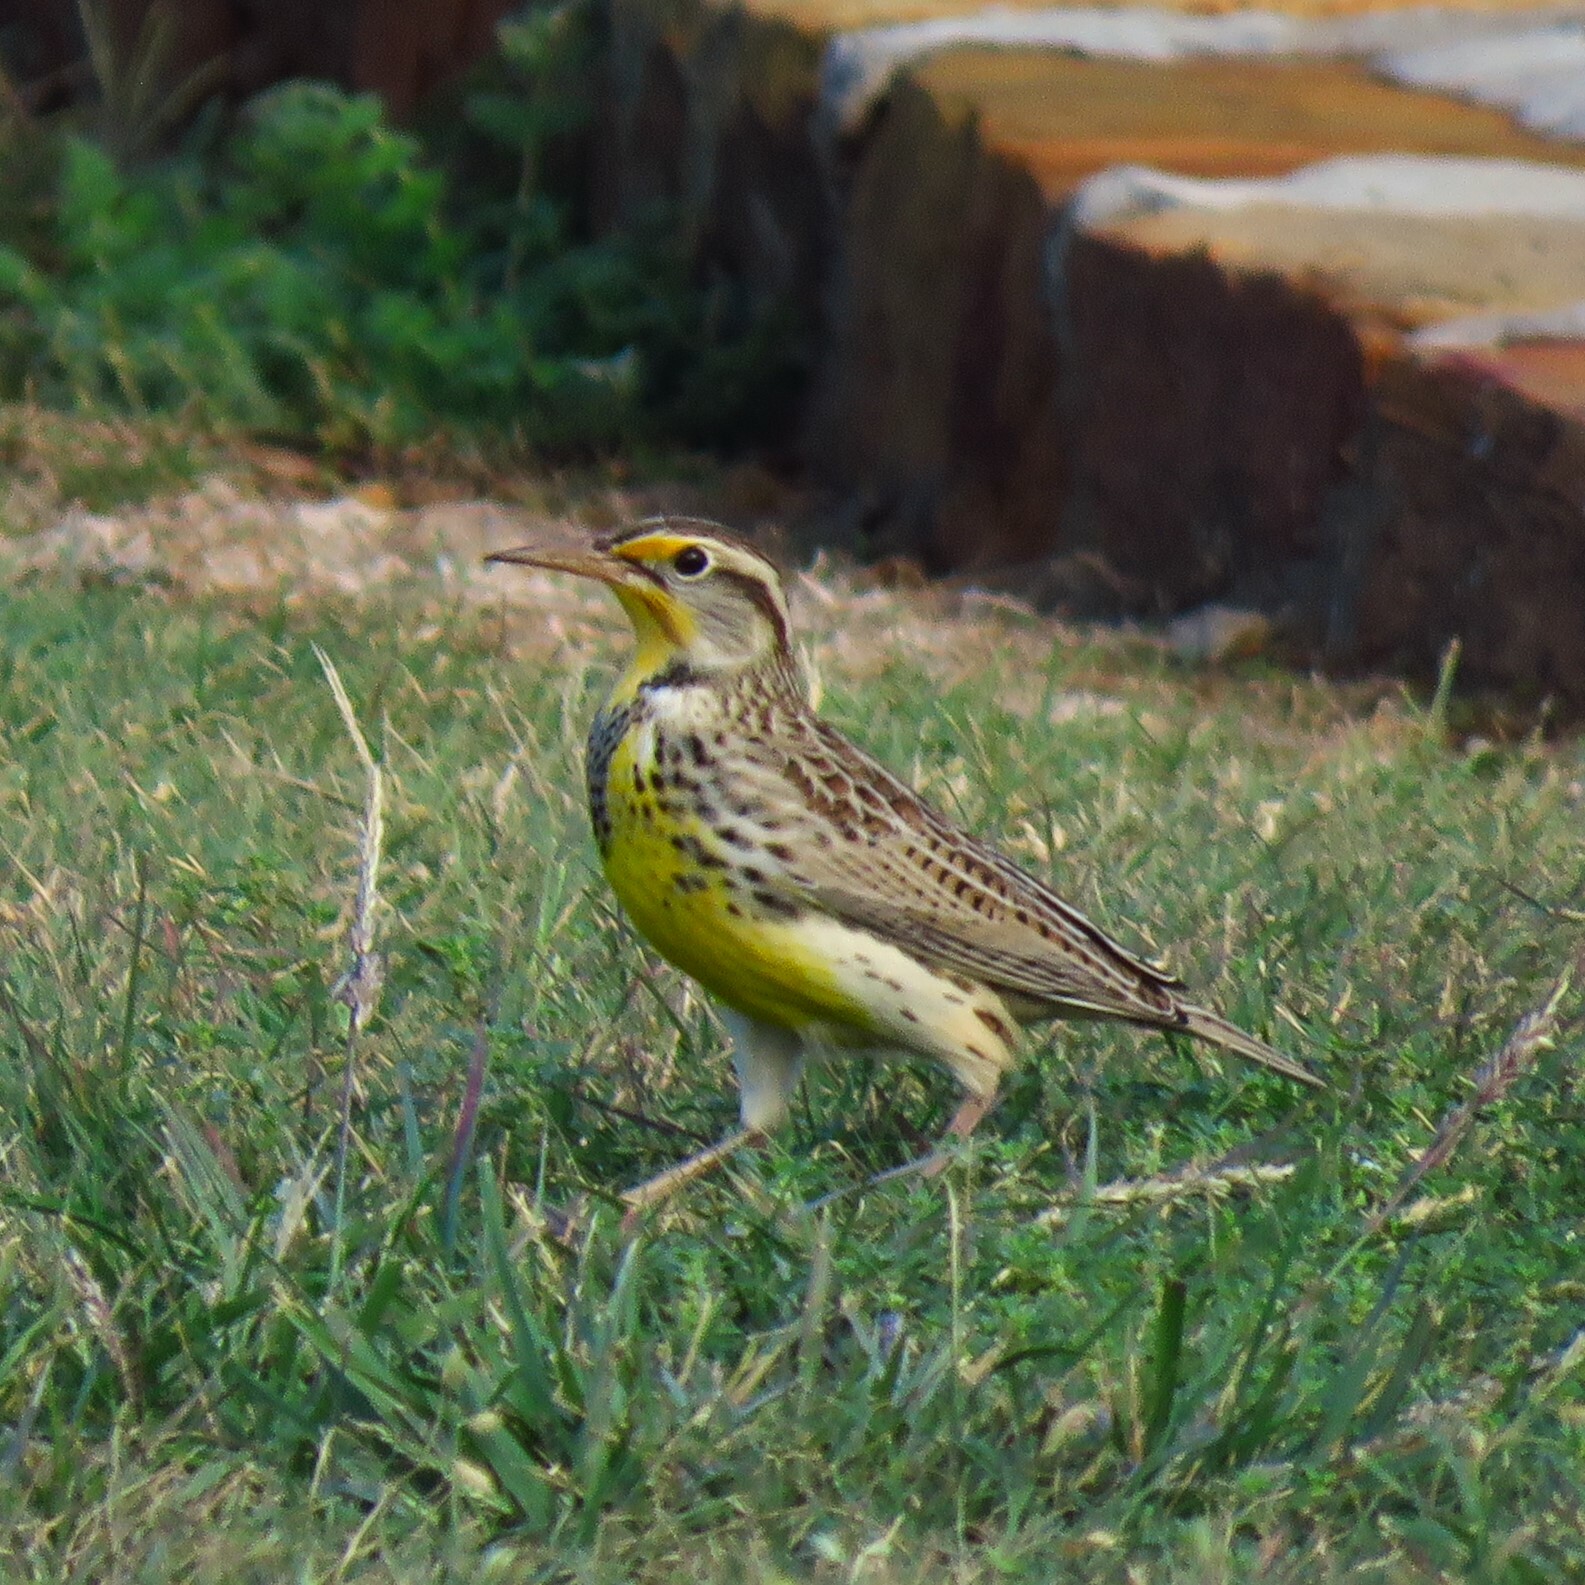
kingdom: Animalia
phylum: Chordata
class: Aves
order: Passeriformes
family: Icteridae
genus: Sturnella
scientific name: Sturnella neglecta
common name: Western meadowlark
